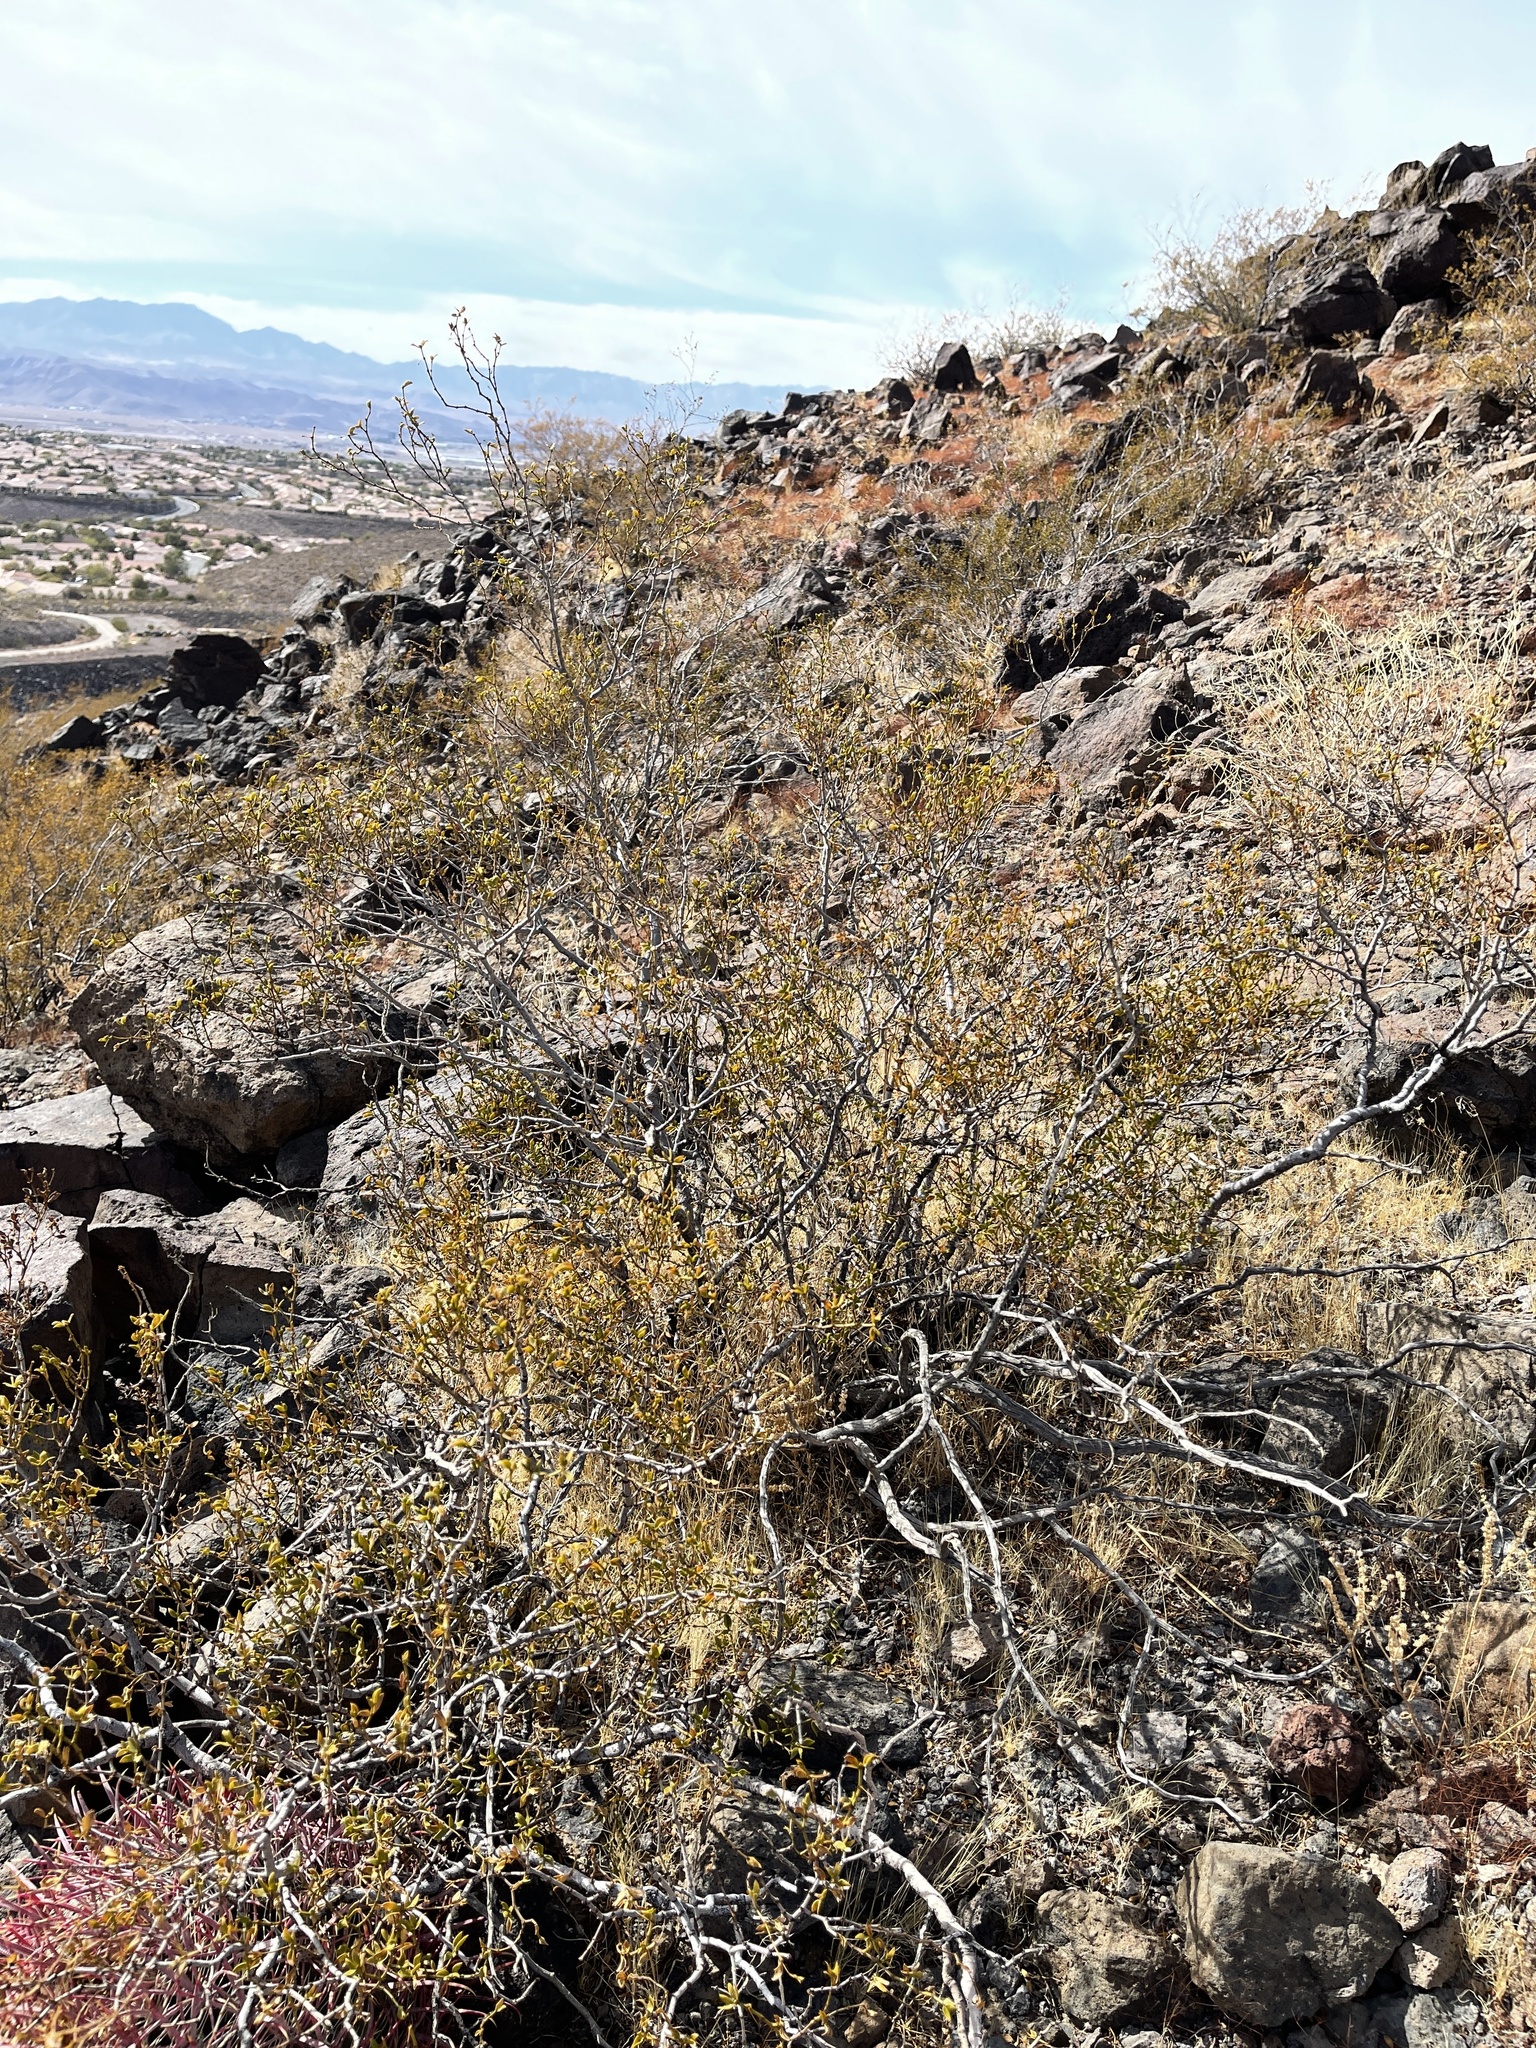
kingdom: Plantae
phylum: Tracheophyta
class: Magnoliopsida
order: Zygophyllales
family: Zygophyllaceae
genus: Larrea
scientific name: Larrea tridentata
